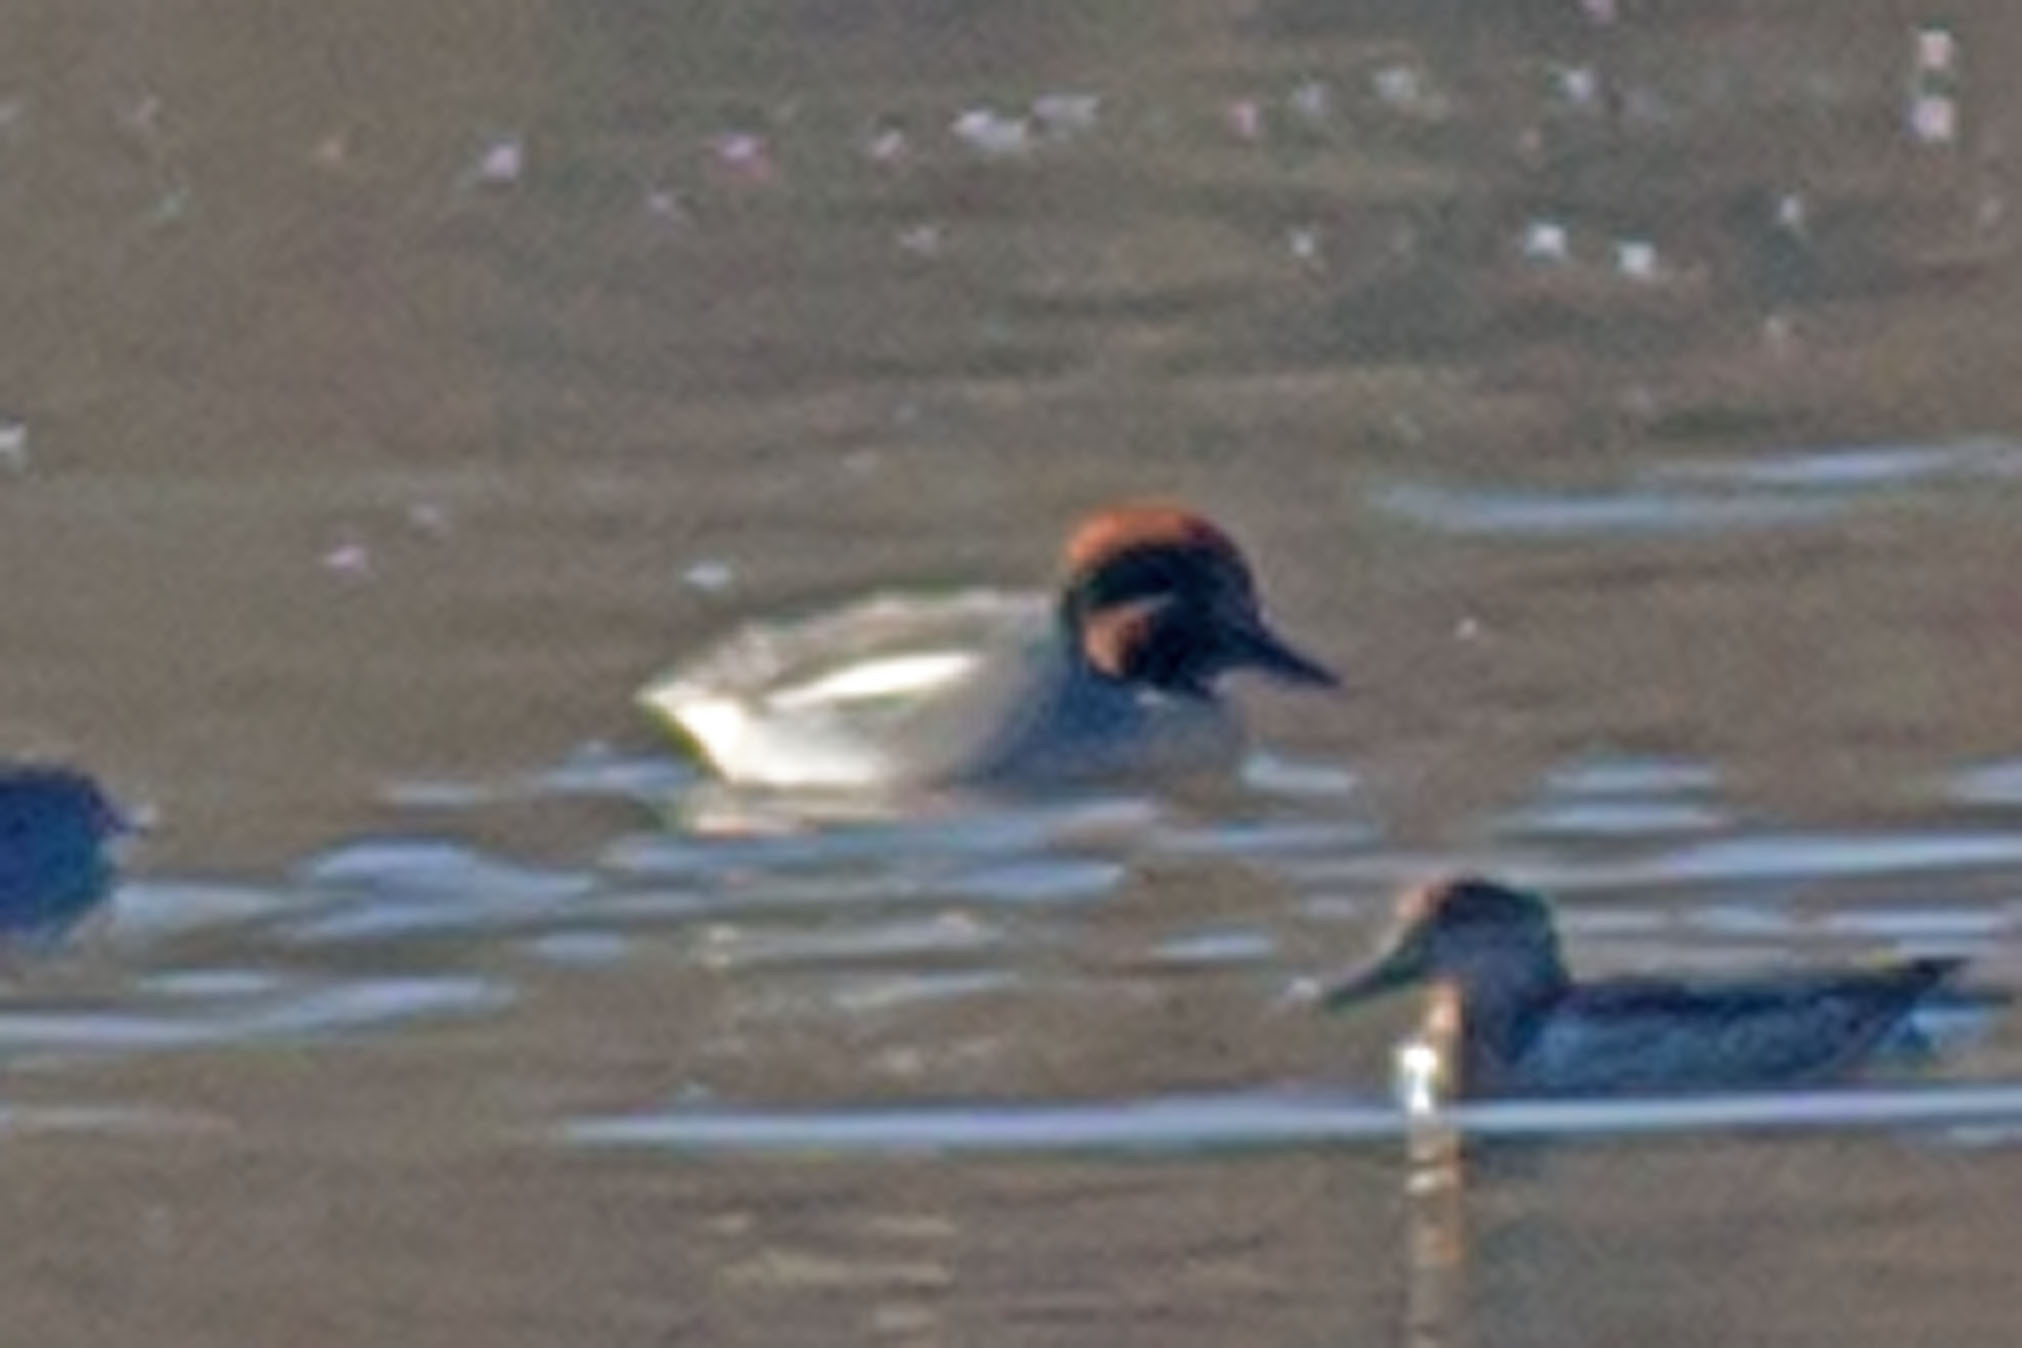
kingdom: Animalia
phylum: Chordata
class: Aves
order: Anseriformes
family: Anatidae
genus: Anas
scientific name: Anas crecca
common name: Eurasian teal
